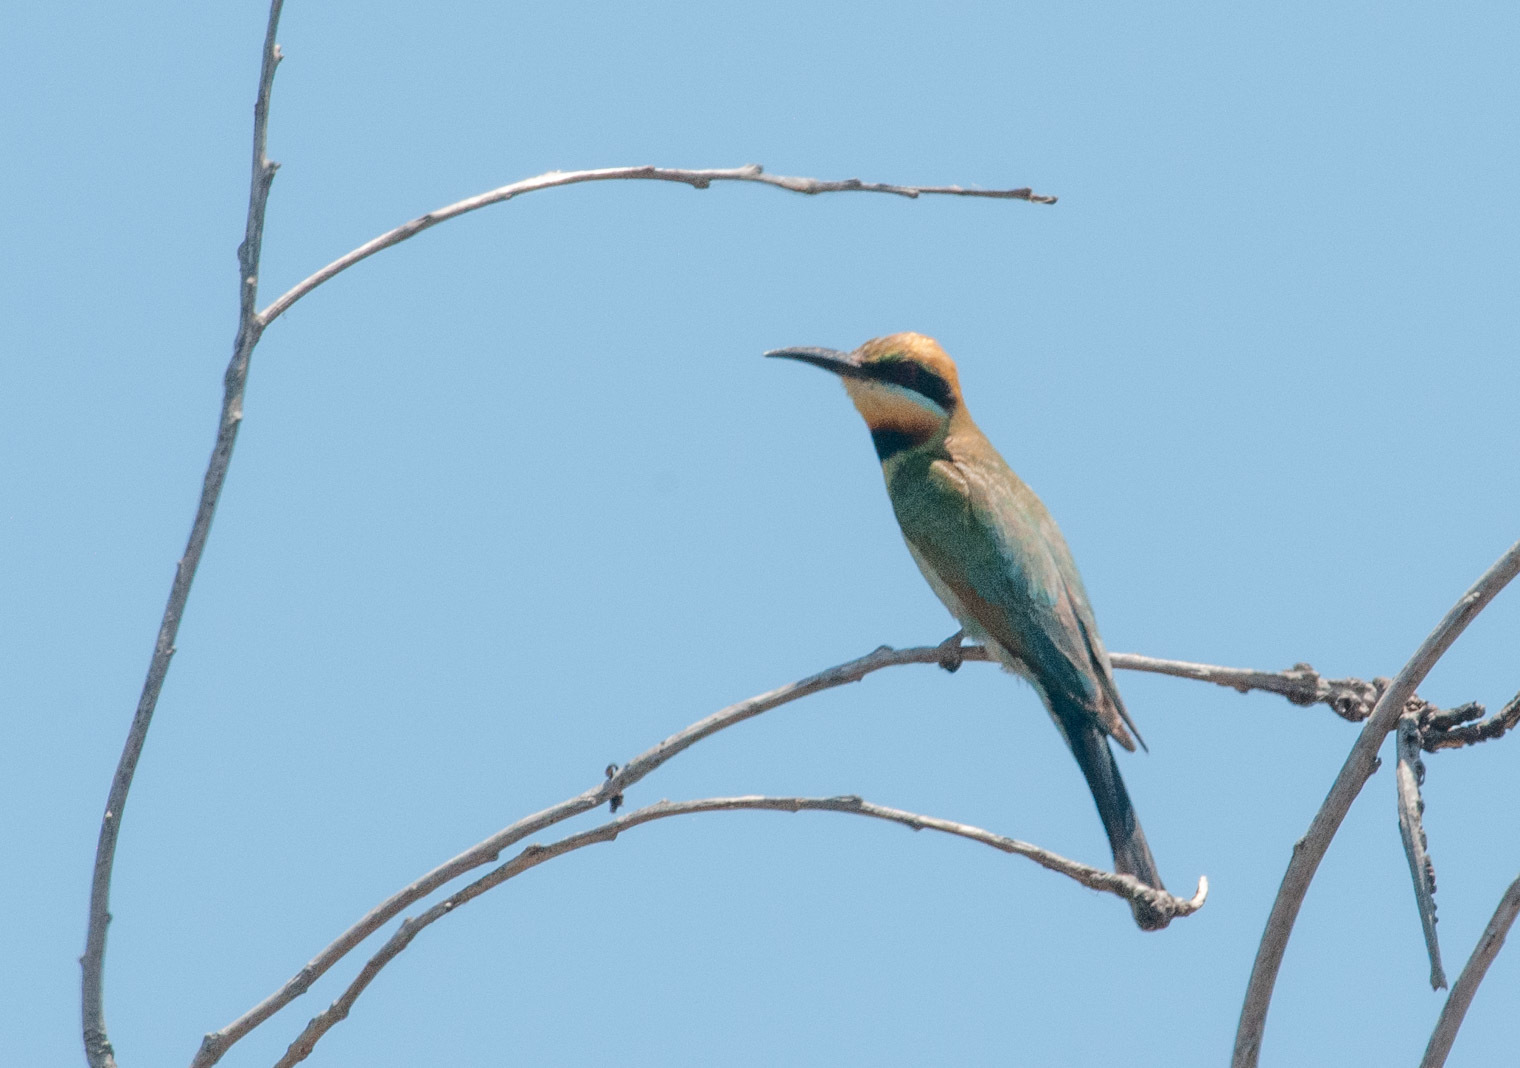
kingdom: Animalia
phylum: Chordata
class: Aves
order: Coraciiformes
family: Meropidae
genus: Merops
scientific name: Merops ornatus
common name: Rainbow bee-eater
